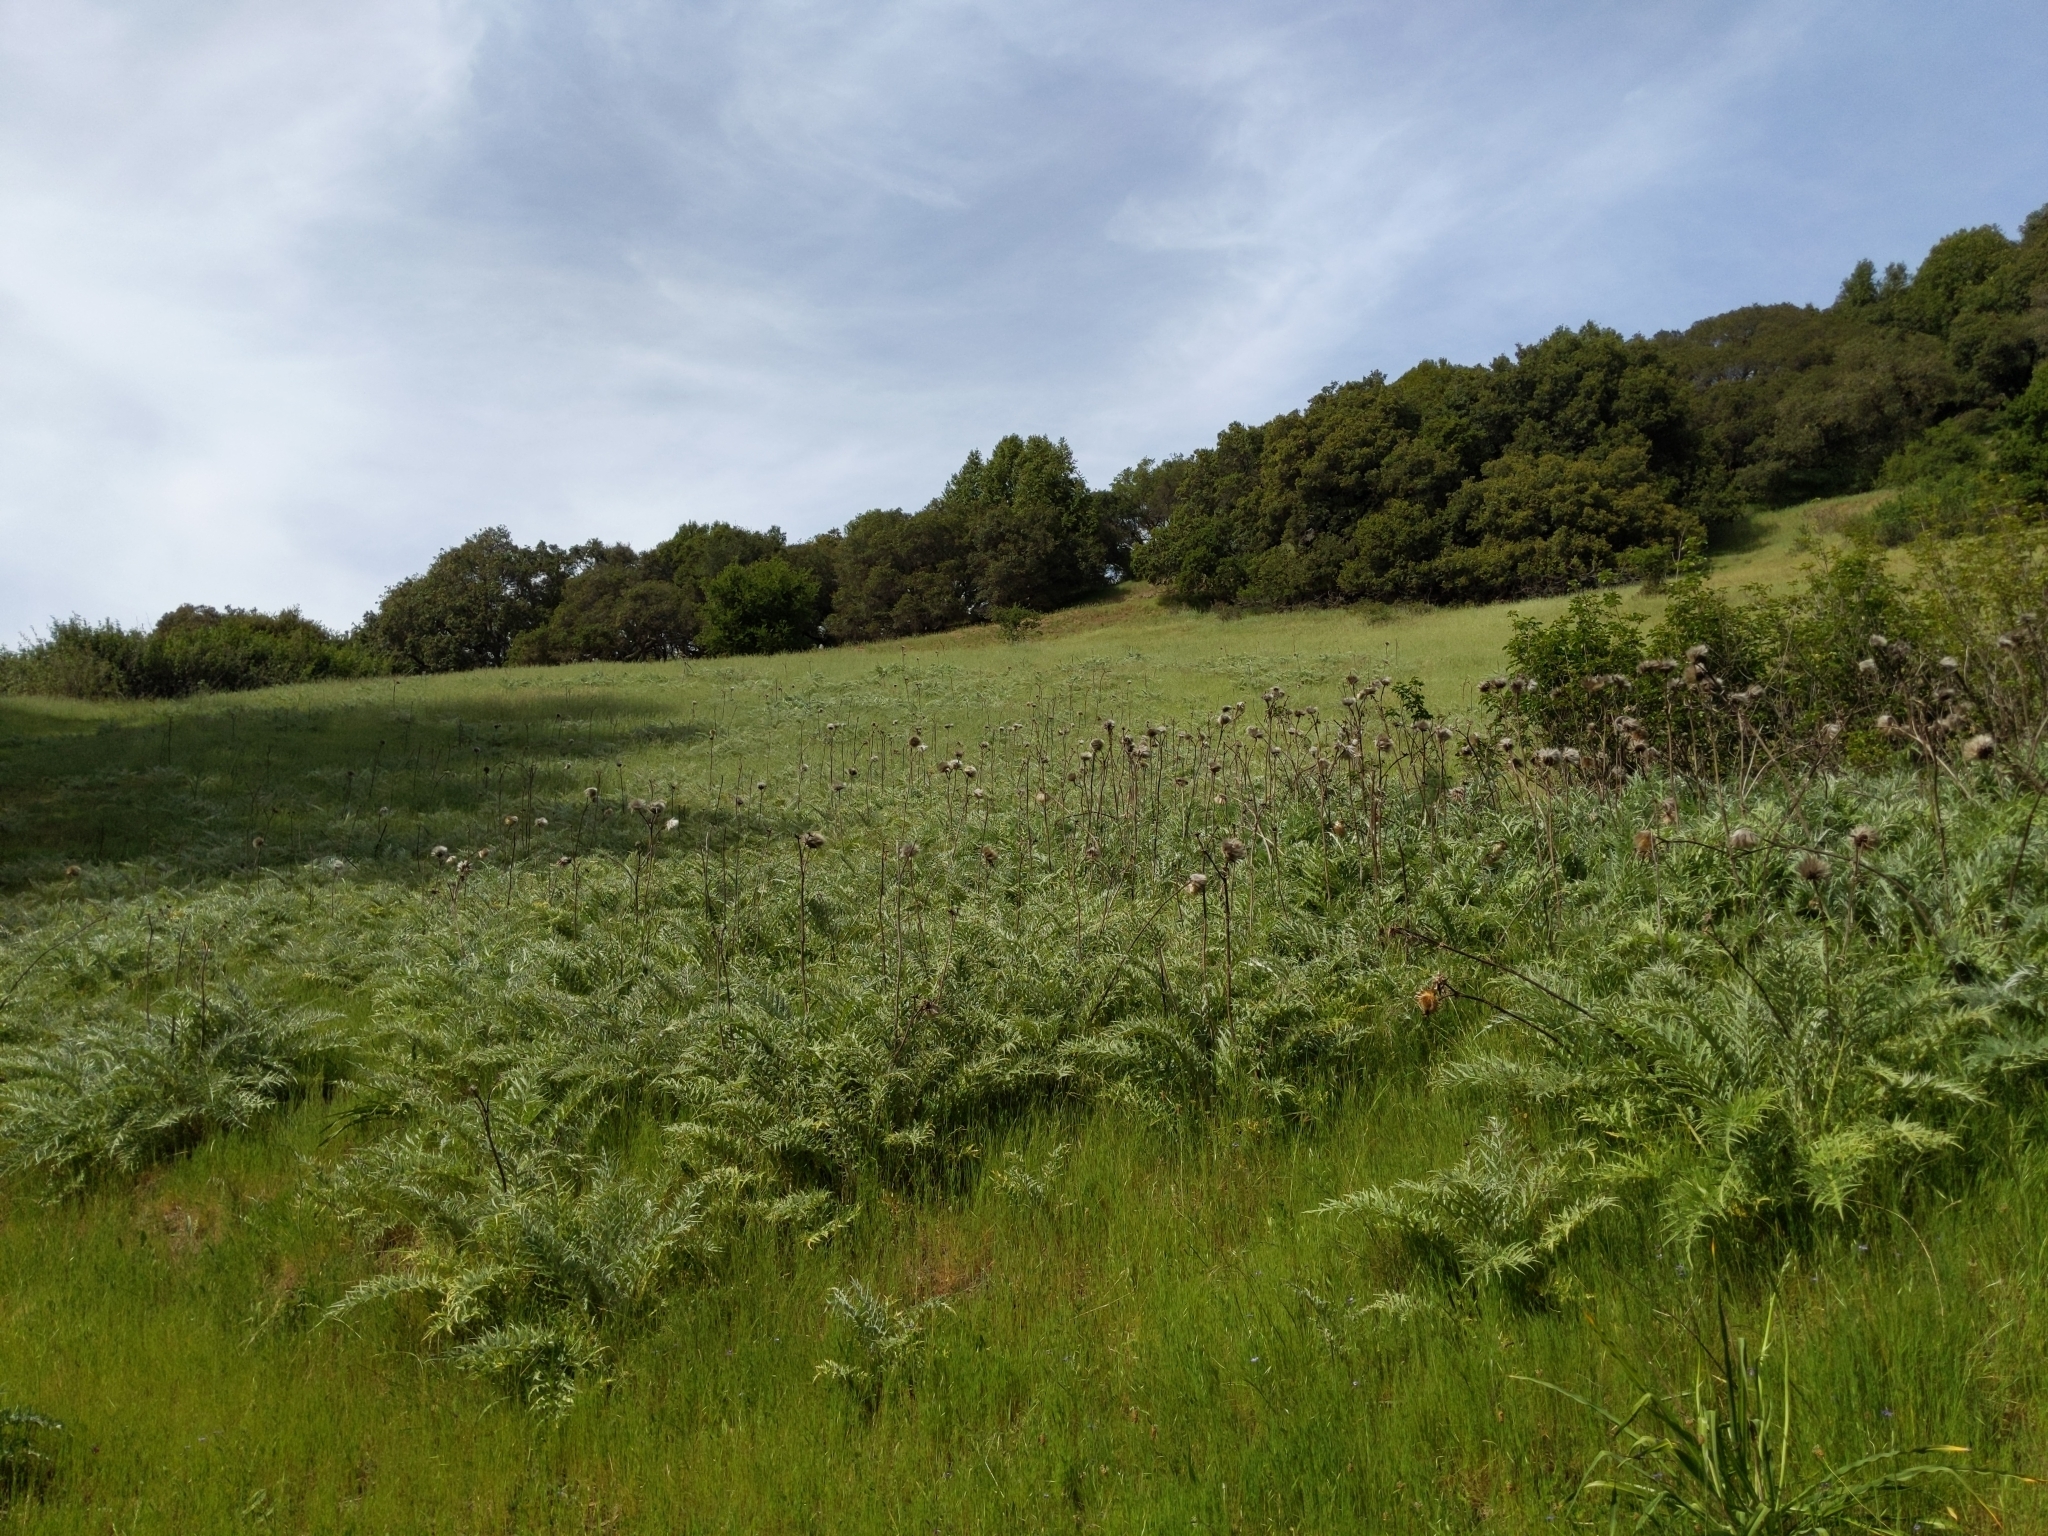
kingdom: Plantae
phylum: Tracheophyta
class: Magnoliopsida
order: Asterales
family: Asteraceae
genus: Cynara
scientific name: Cynara cardunculus
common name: Globe artichoke
